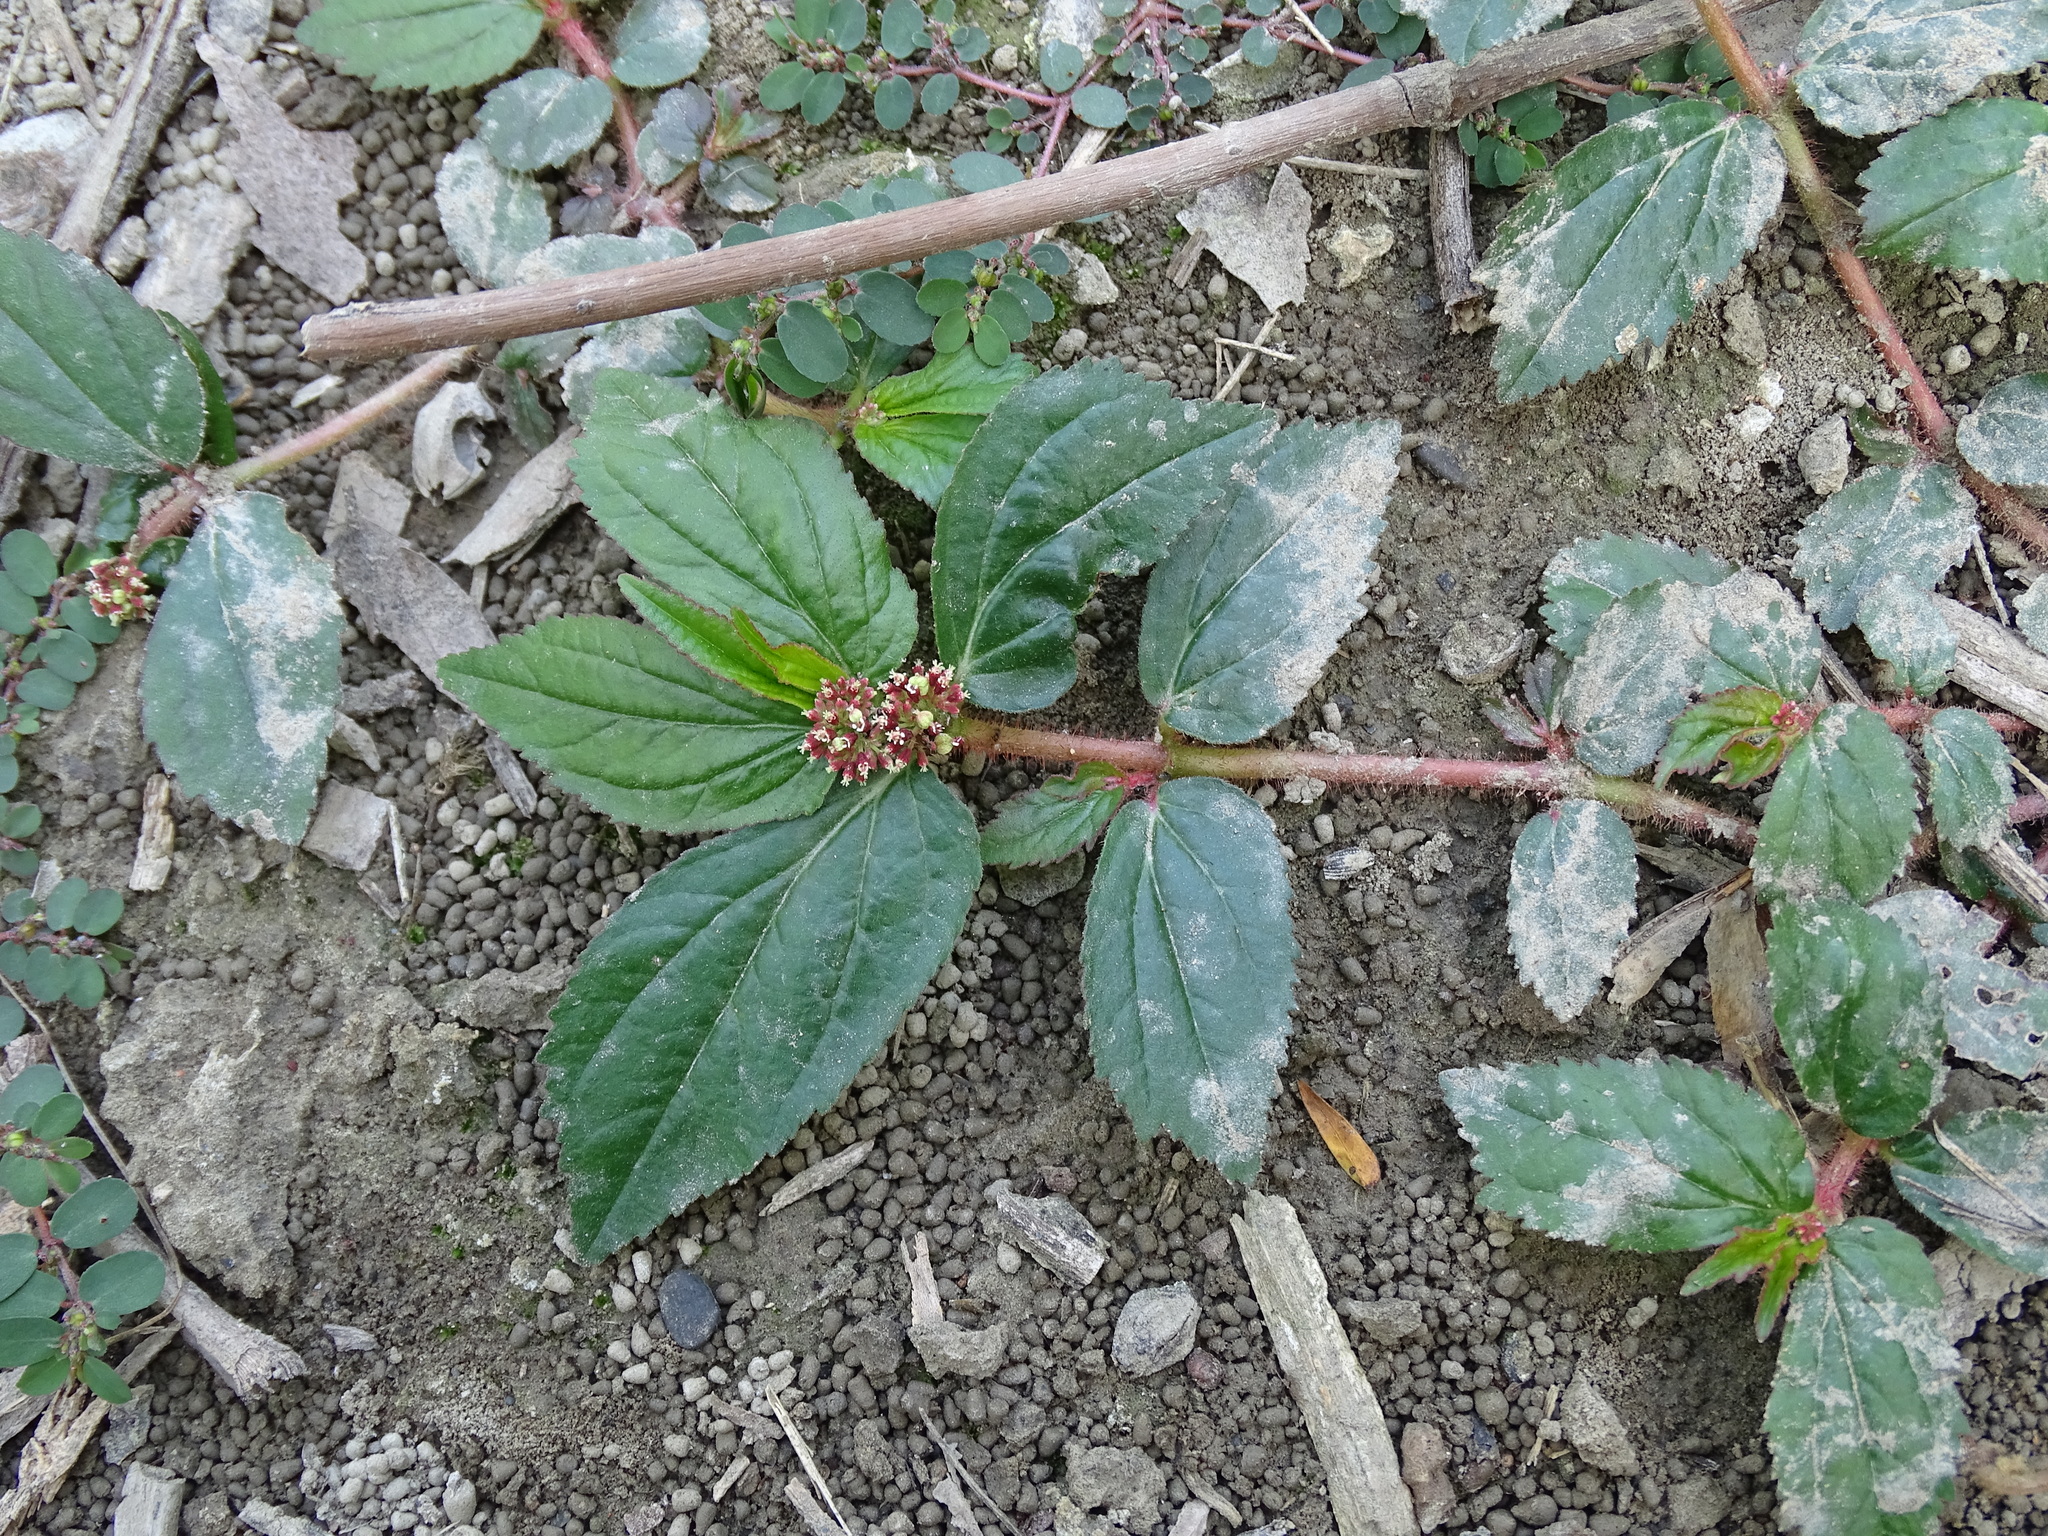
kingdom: Plantae
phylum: Tracheophyta
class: Magnoliopsida
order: Malpighiales
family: Euphorbiaceae
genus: Euphorbia
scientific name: Euphorbia hirta
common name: Pillpod sandmat
